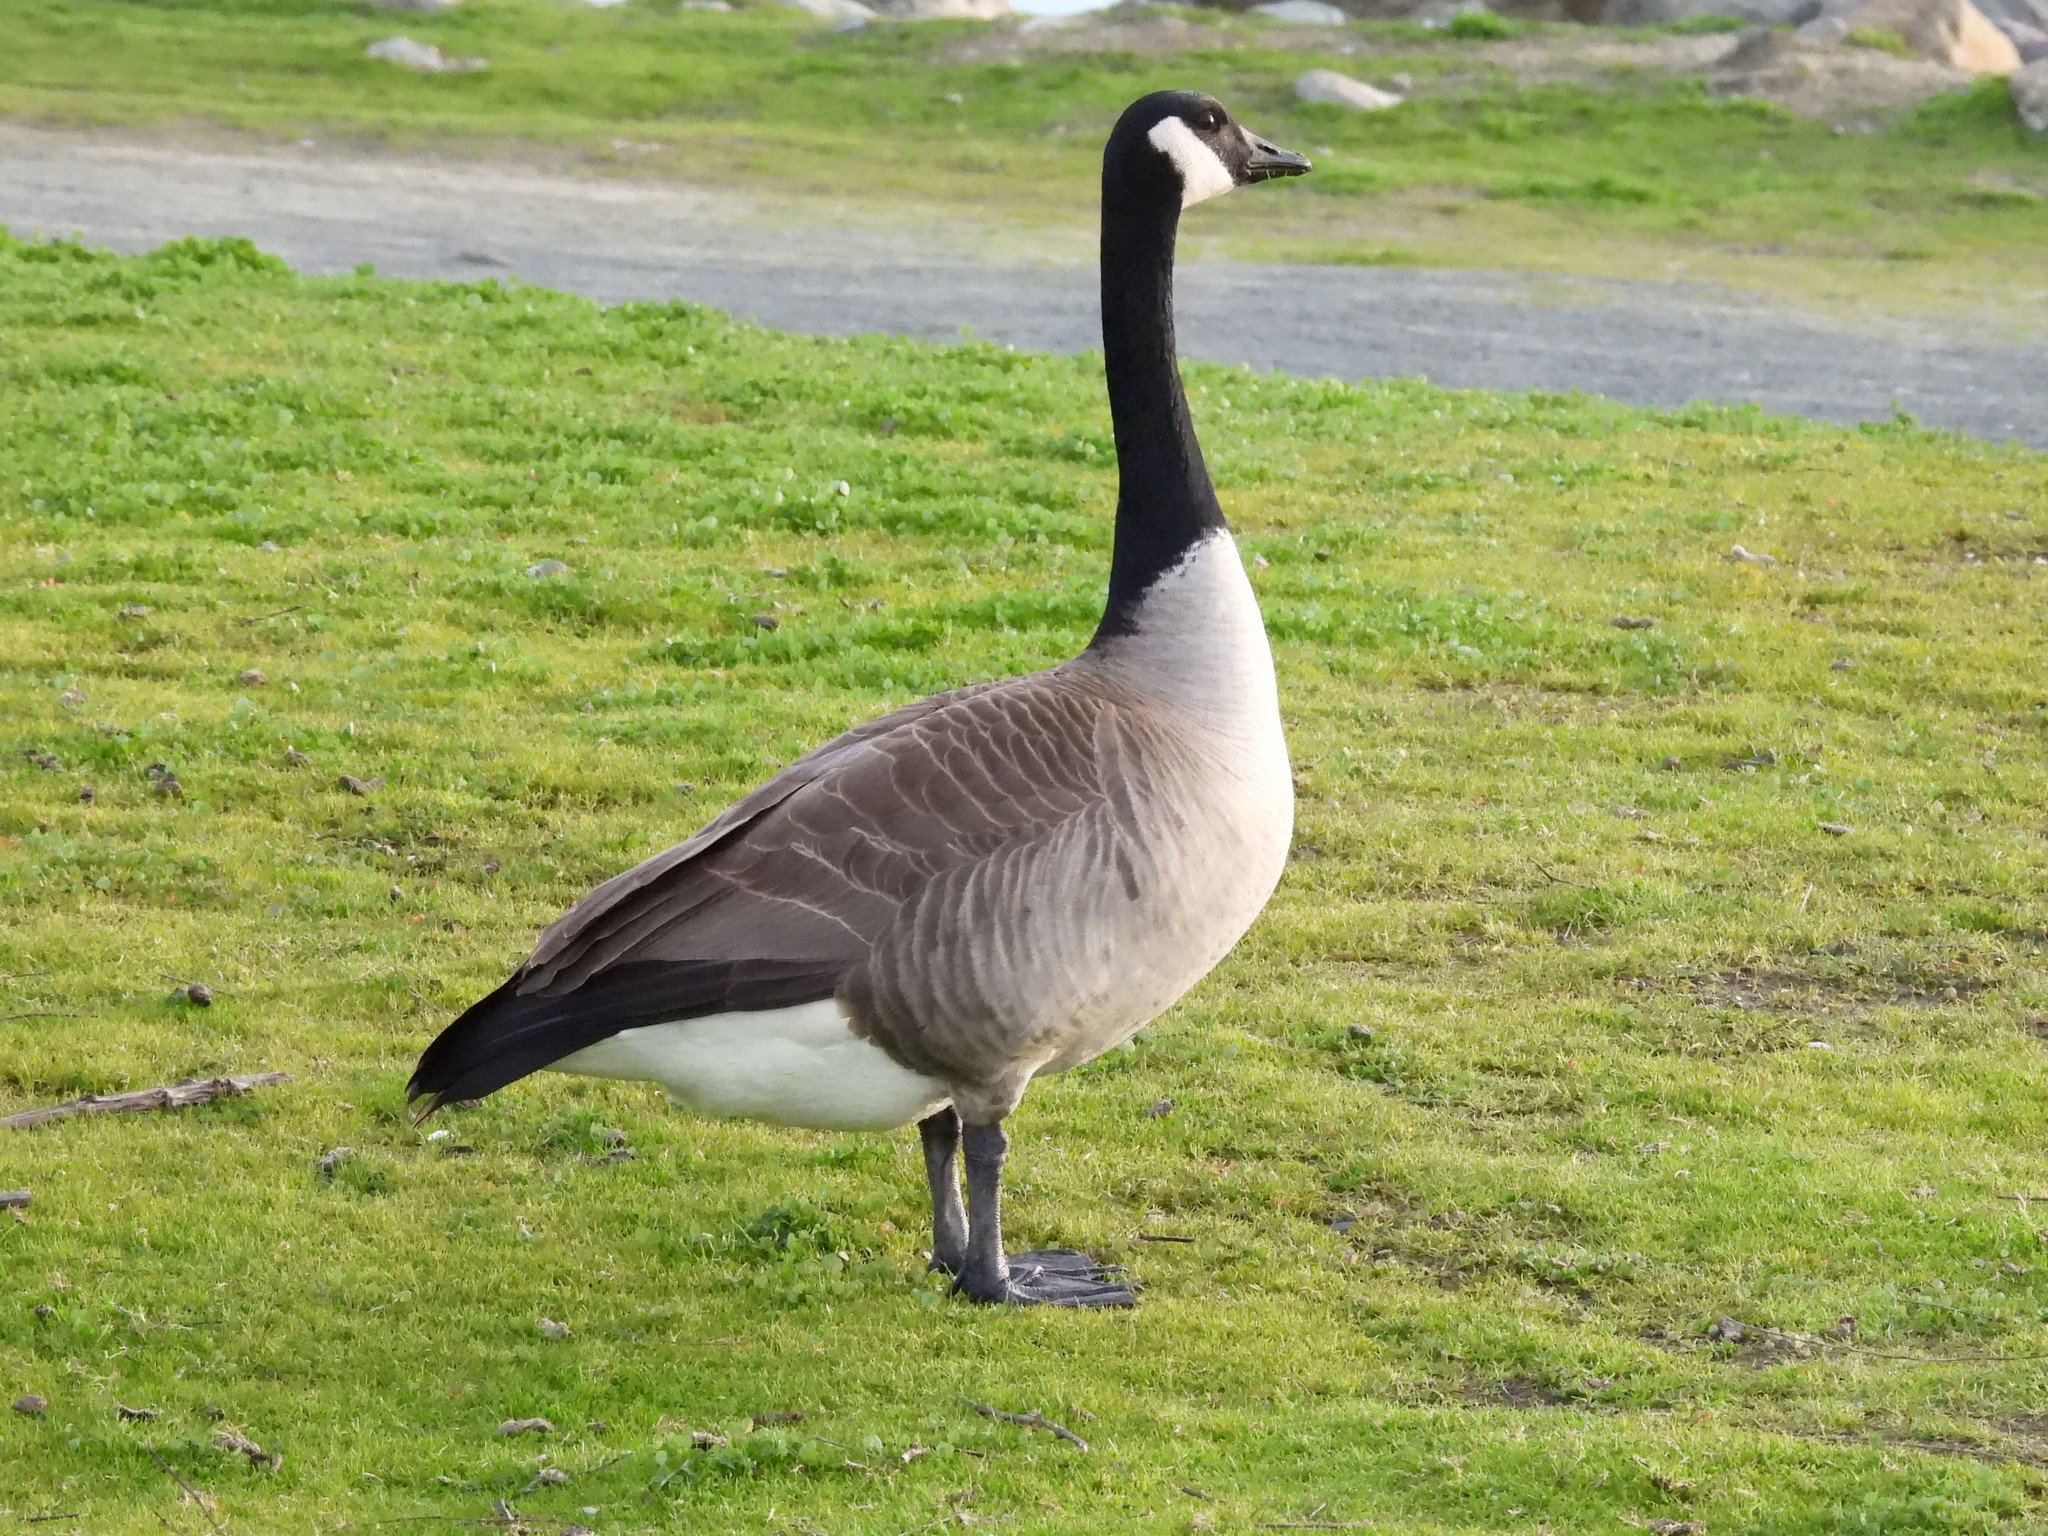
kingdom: Animalia
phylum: Chordata
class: Aves
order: Anseriformes
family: Anatidae
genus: Branta
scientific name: Branta canadensis
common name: Canada goose
